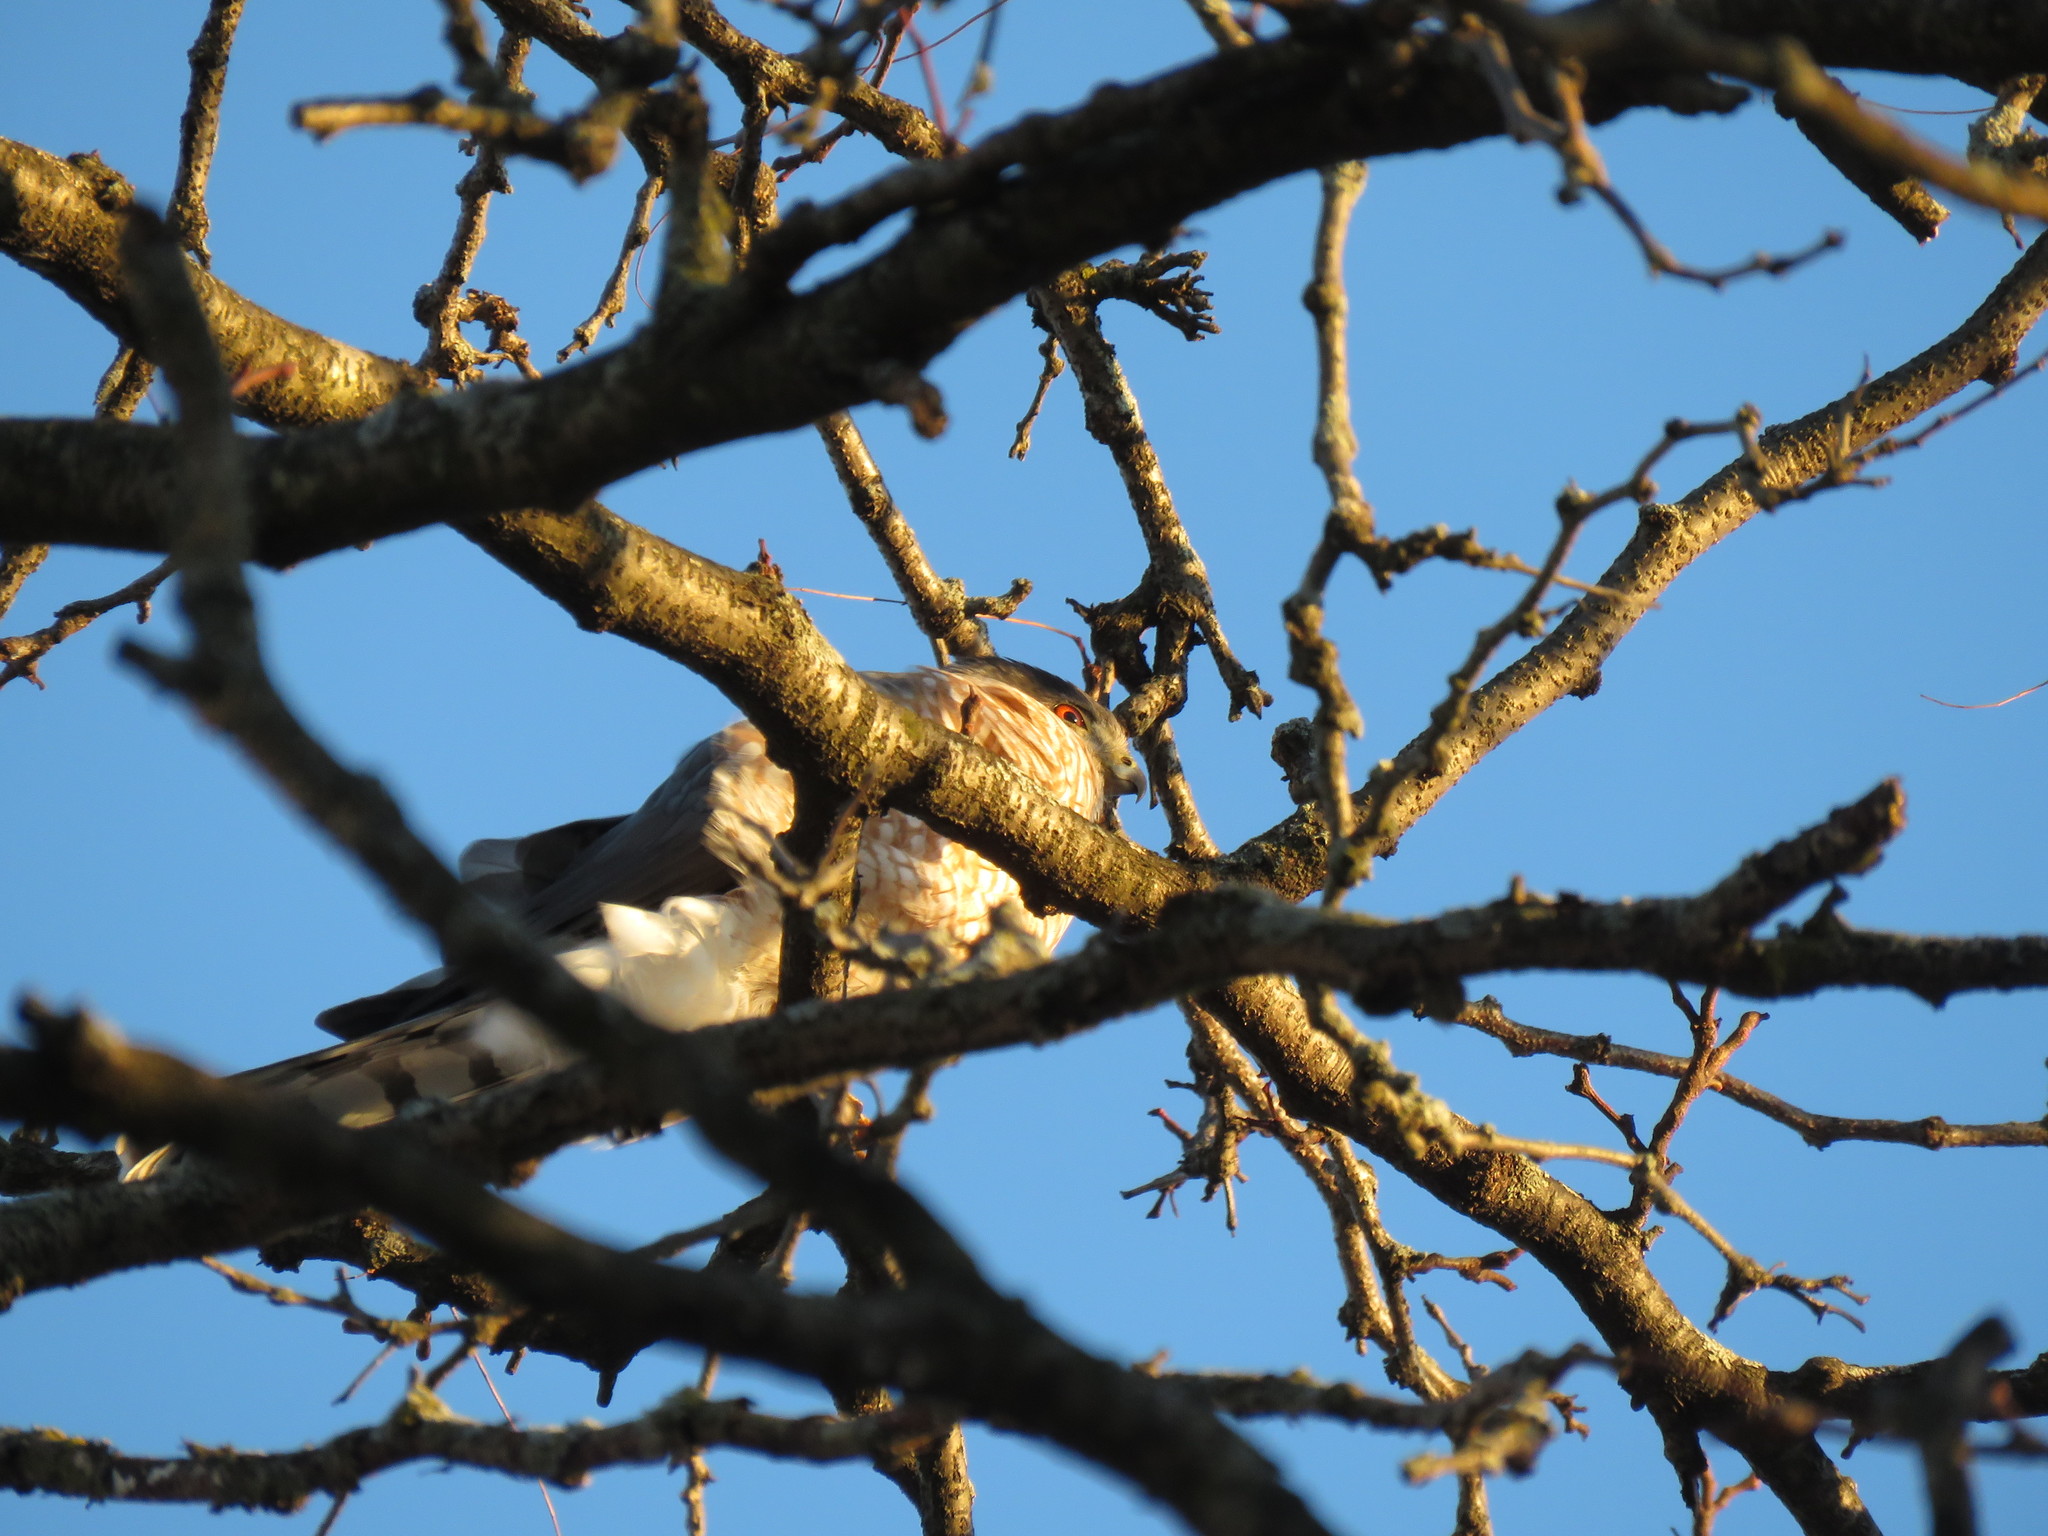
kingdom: Animalia
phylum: Chordata
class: Aves
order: Accipitriformes
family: Accipitridae
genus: Accipiter
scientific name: Accipiter cooperii
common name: Cooper's hawk
